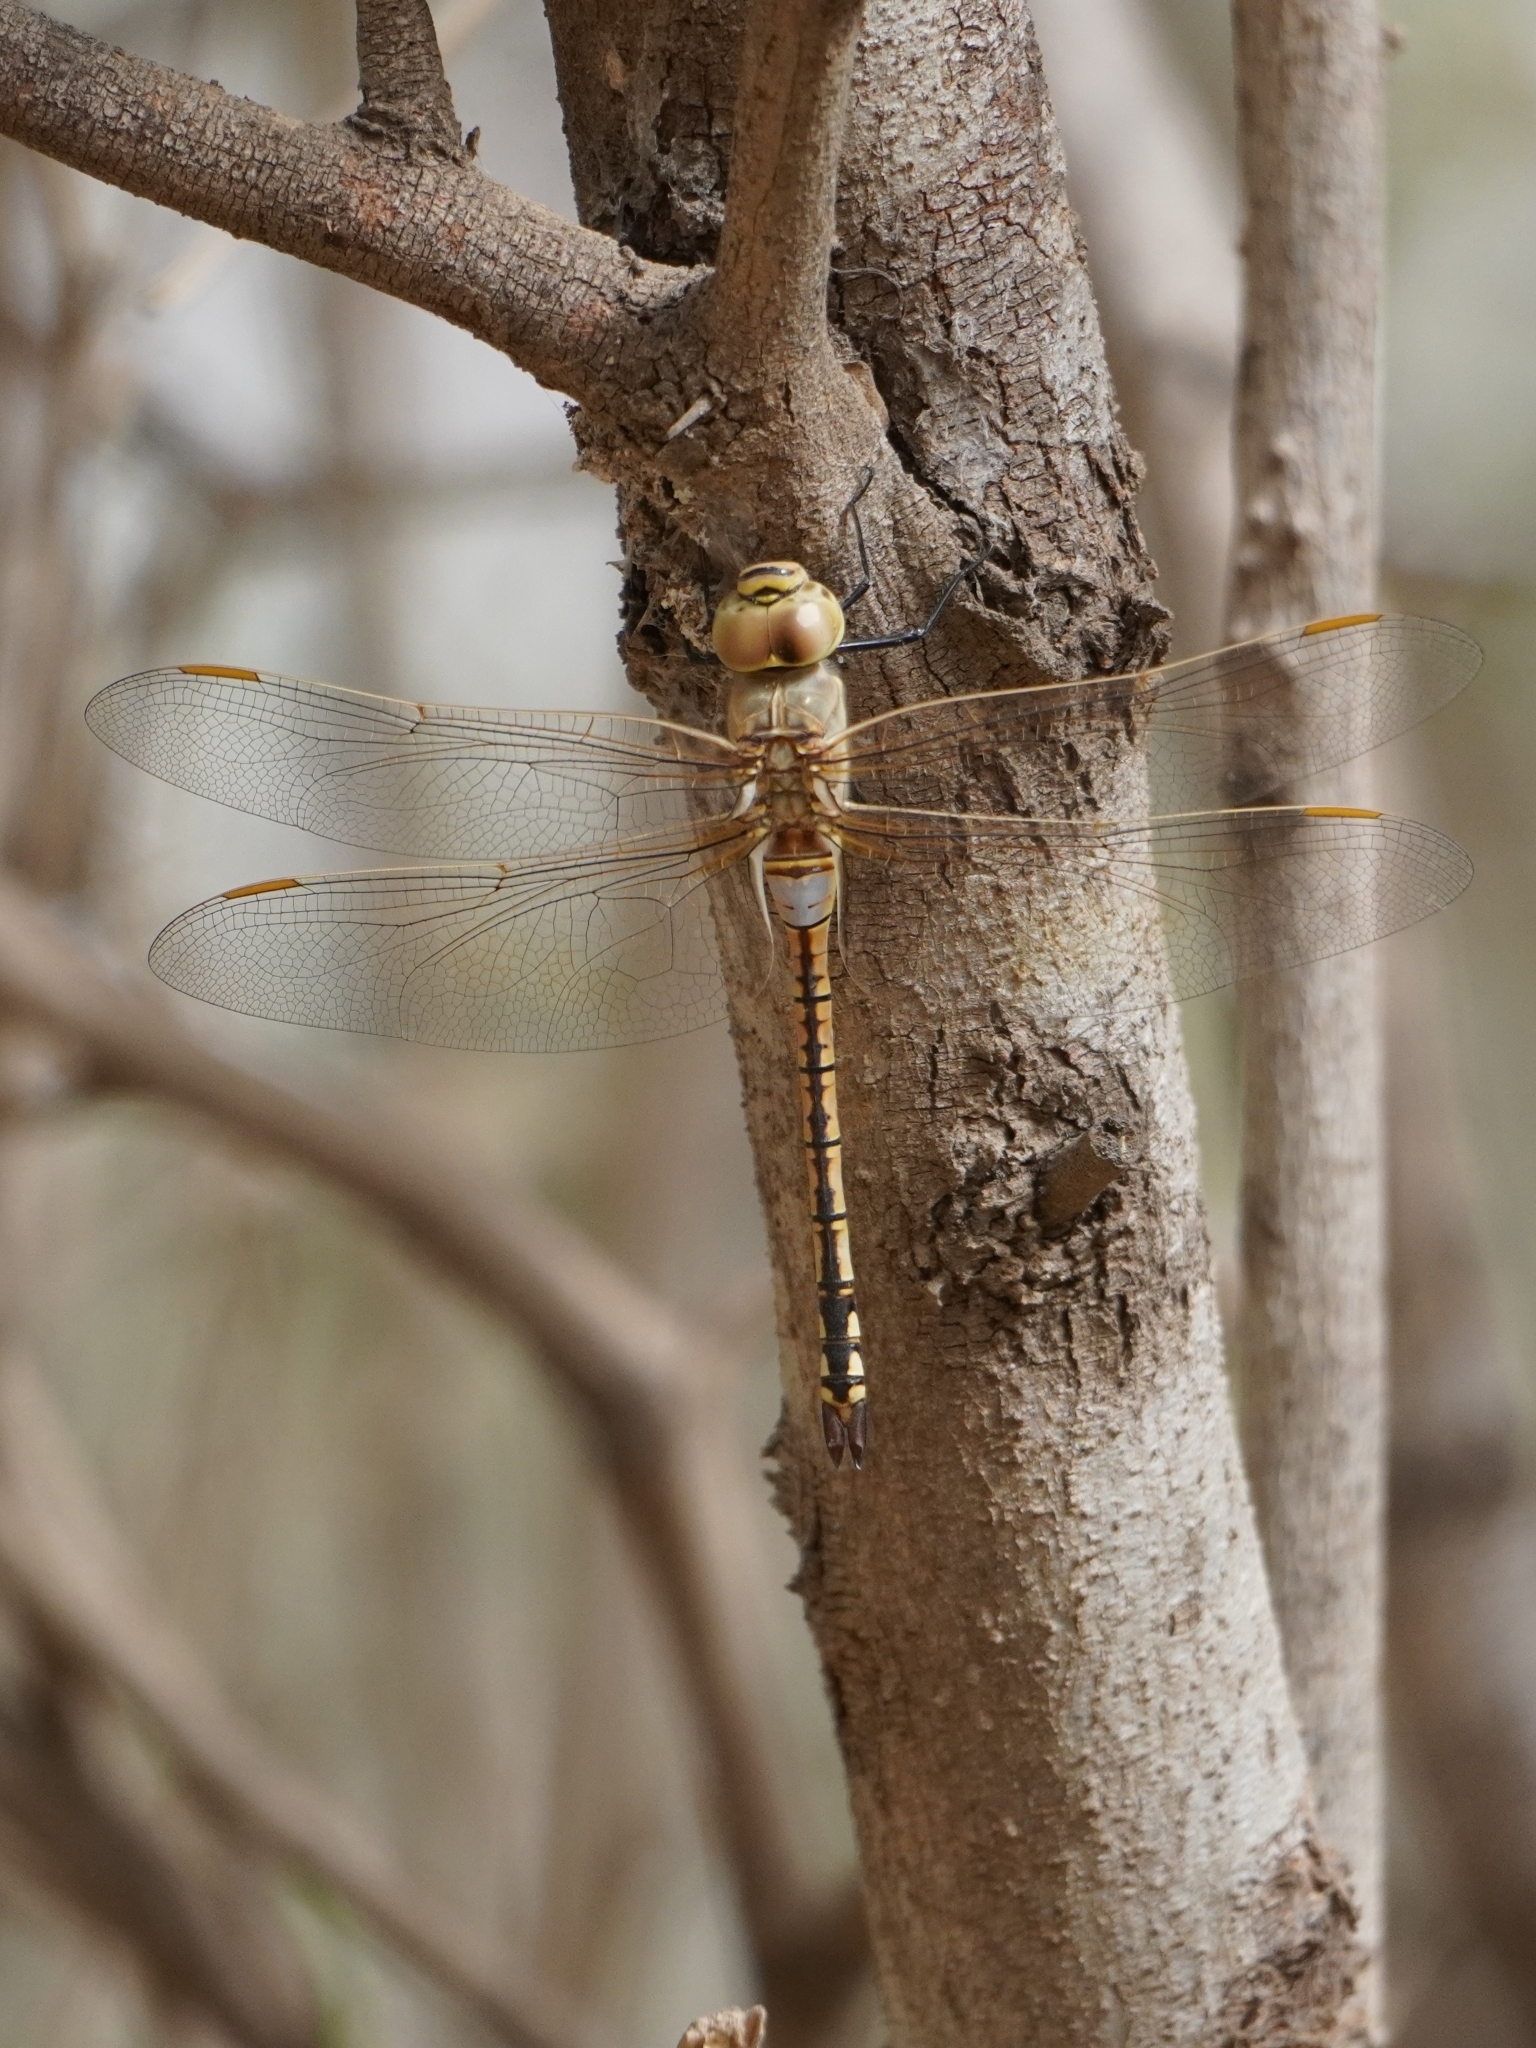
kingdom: Animalia
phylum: Arthropoda
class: Insecta
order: Odonata
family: Aeshnidae
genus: Anax
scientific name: Anax ephippiger
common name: Vagrant emperor
